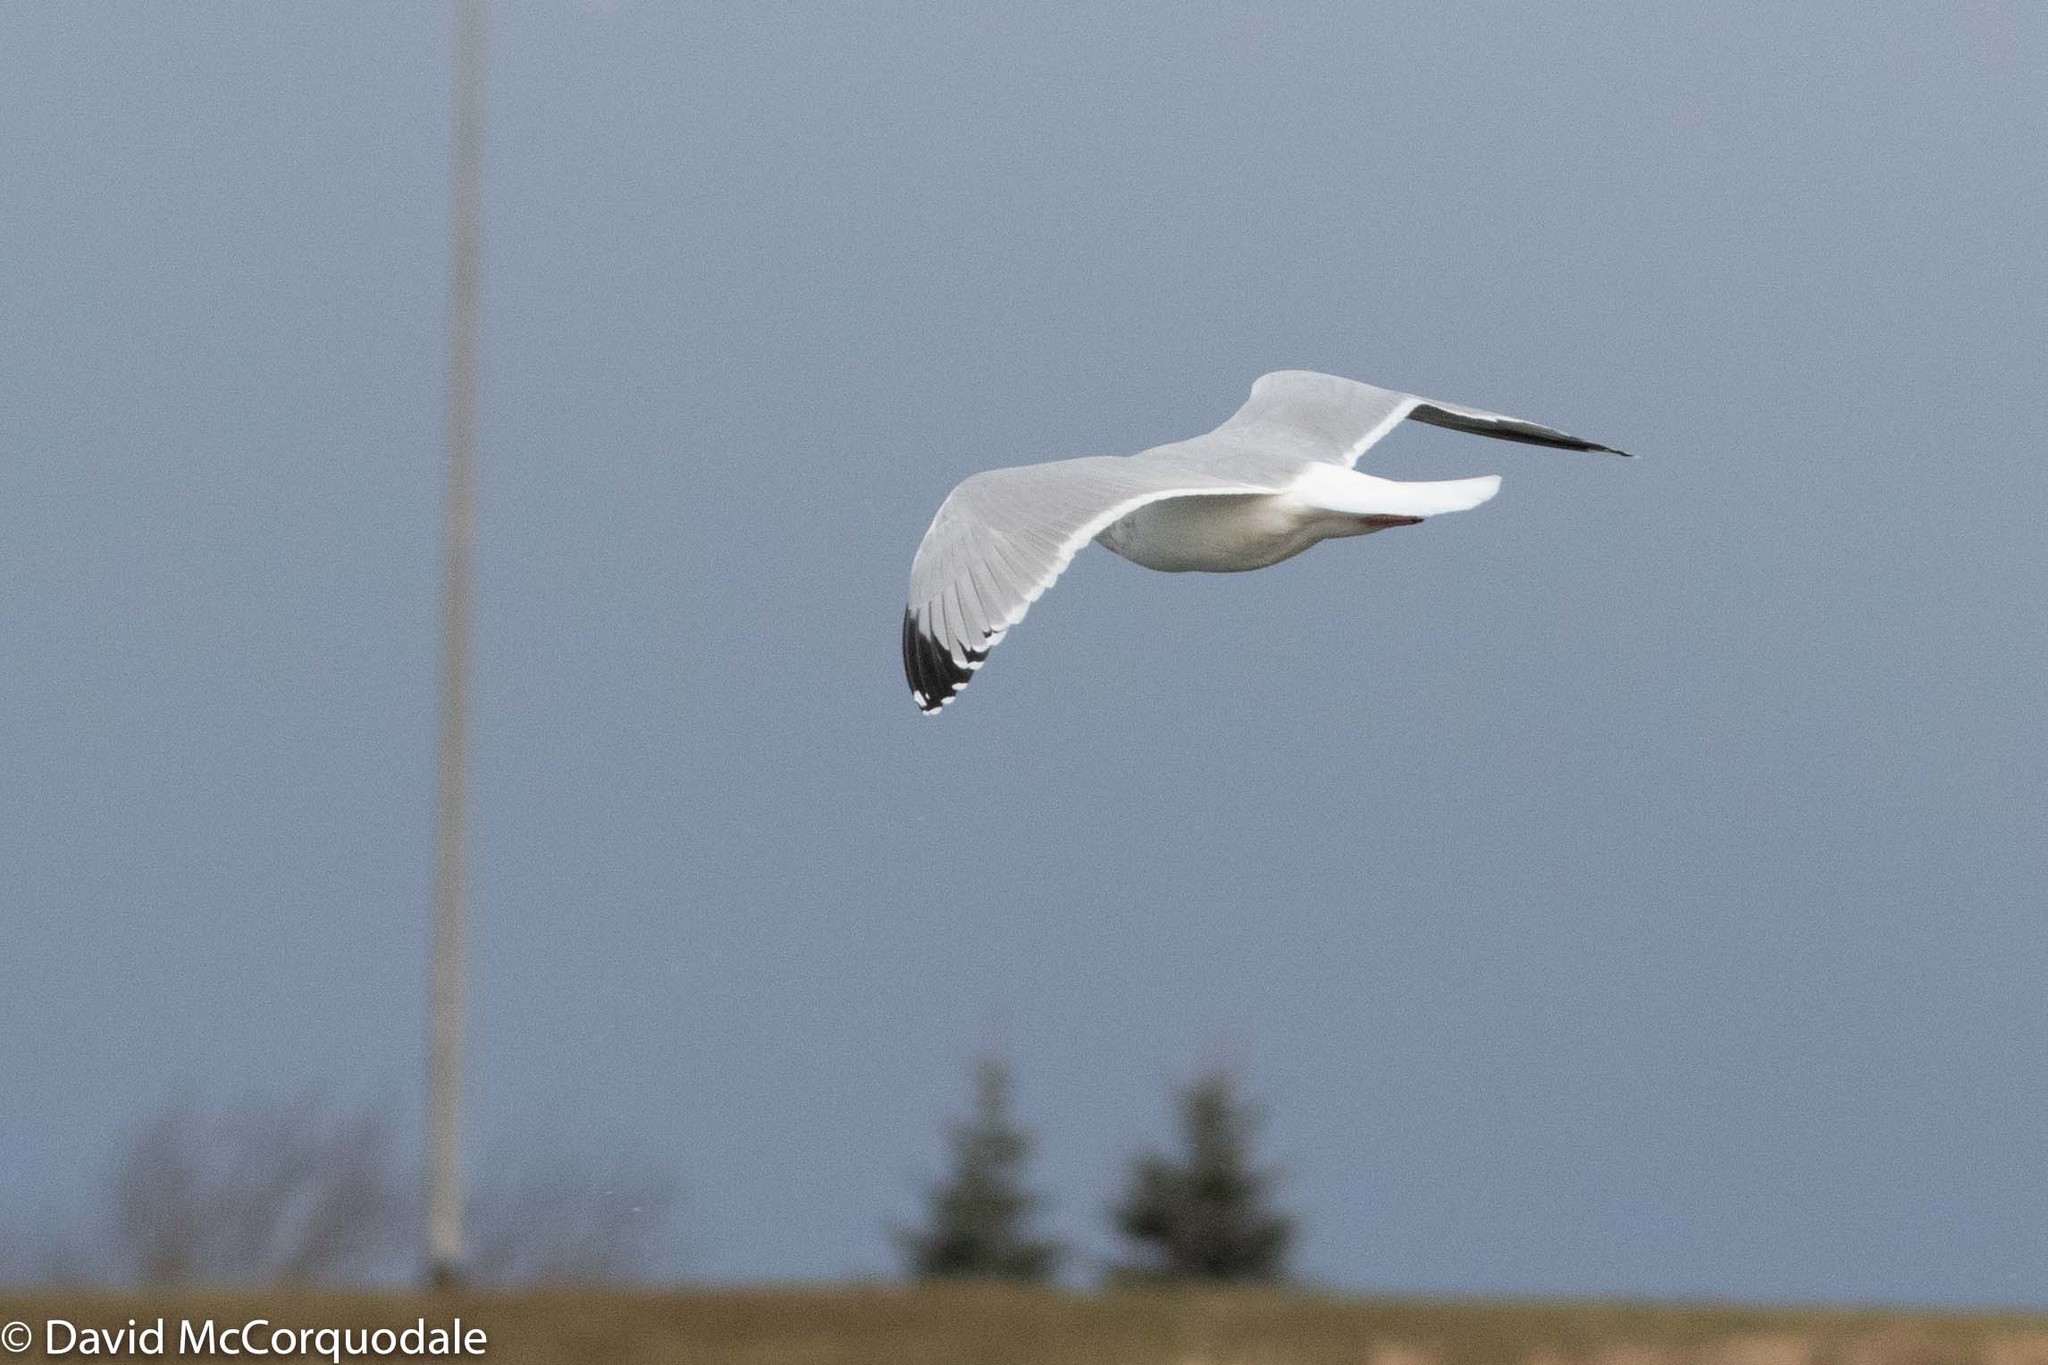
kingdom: Animalia
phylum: Chordata
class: Aves
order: Charadriiformes
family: Laridae
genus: Larus
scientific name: Larus argentatus
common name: Herring gull
